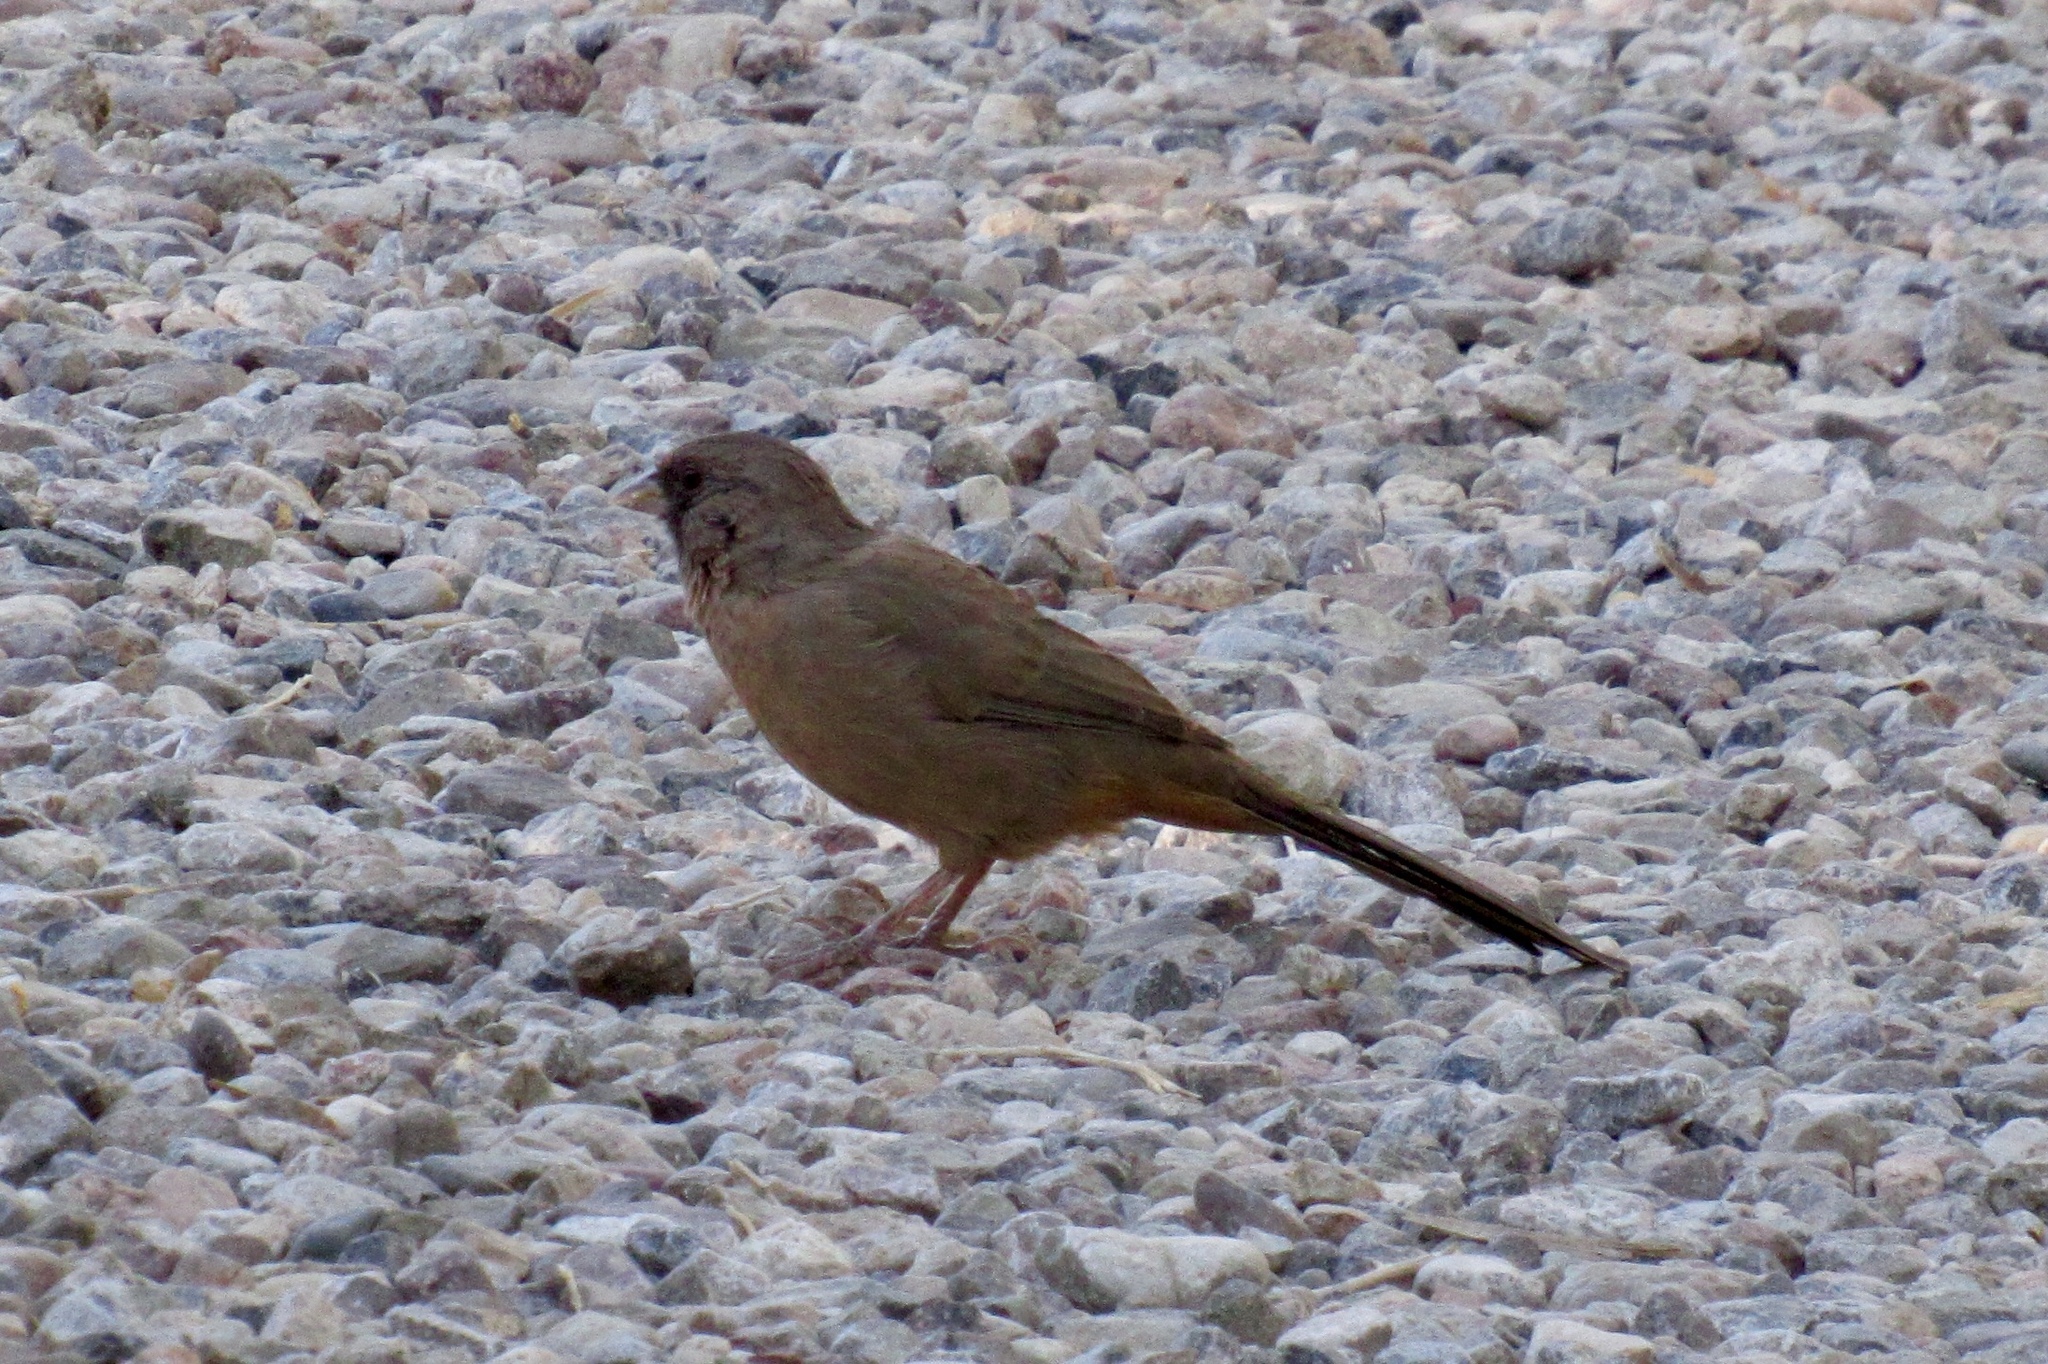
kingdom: Animalia
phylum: Chordata
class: Aves
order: Passeriformes
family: Passerellidae
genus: Melozone
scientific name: Melozone aberti
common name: Abert's towhee
